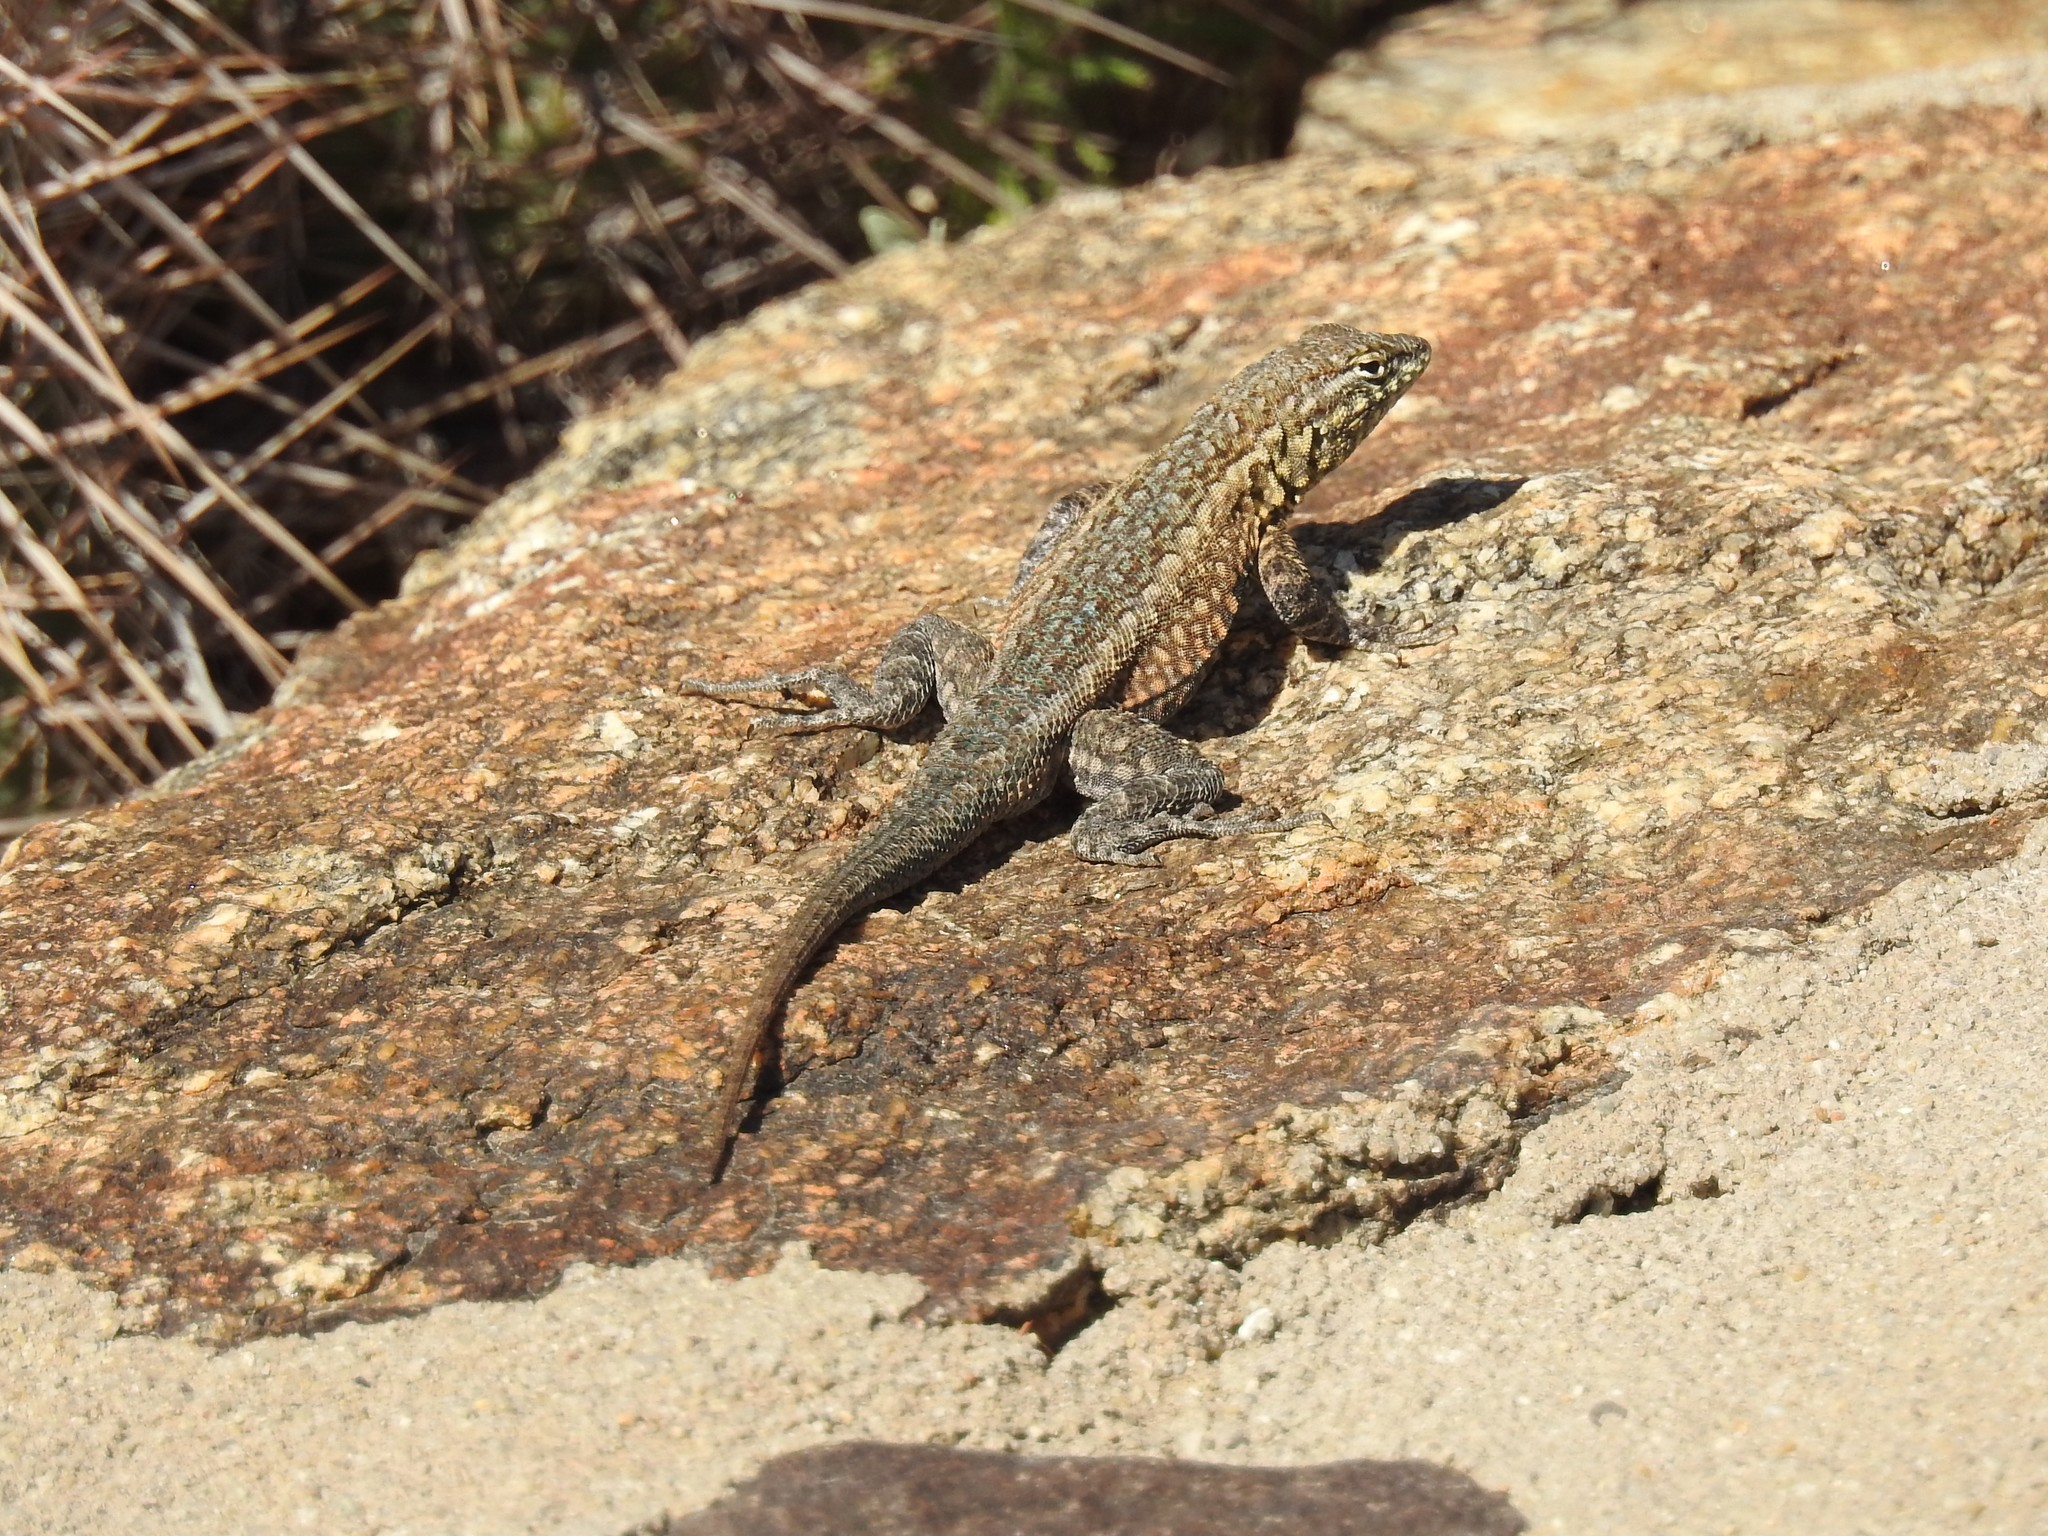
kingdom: Animalia
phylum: Chordata
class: Squamata
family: Phrynosomatidae
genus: Uta
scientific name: Uta stansburiana
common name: Side-blotched lizard
